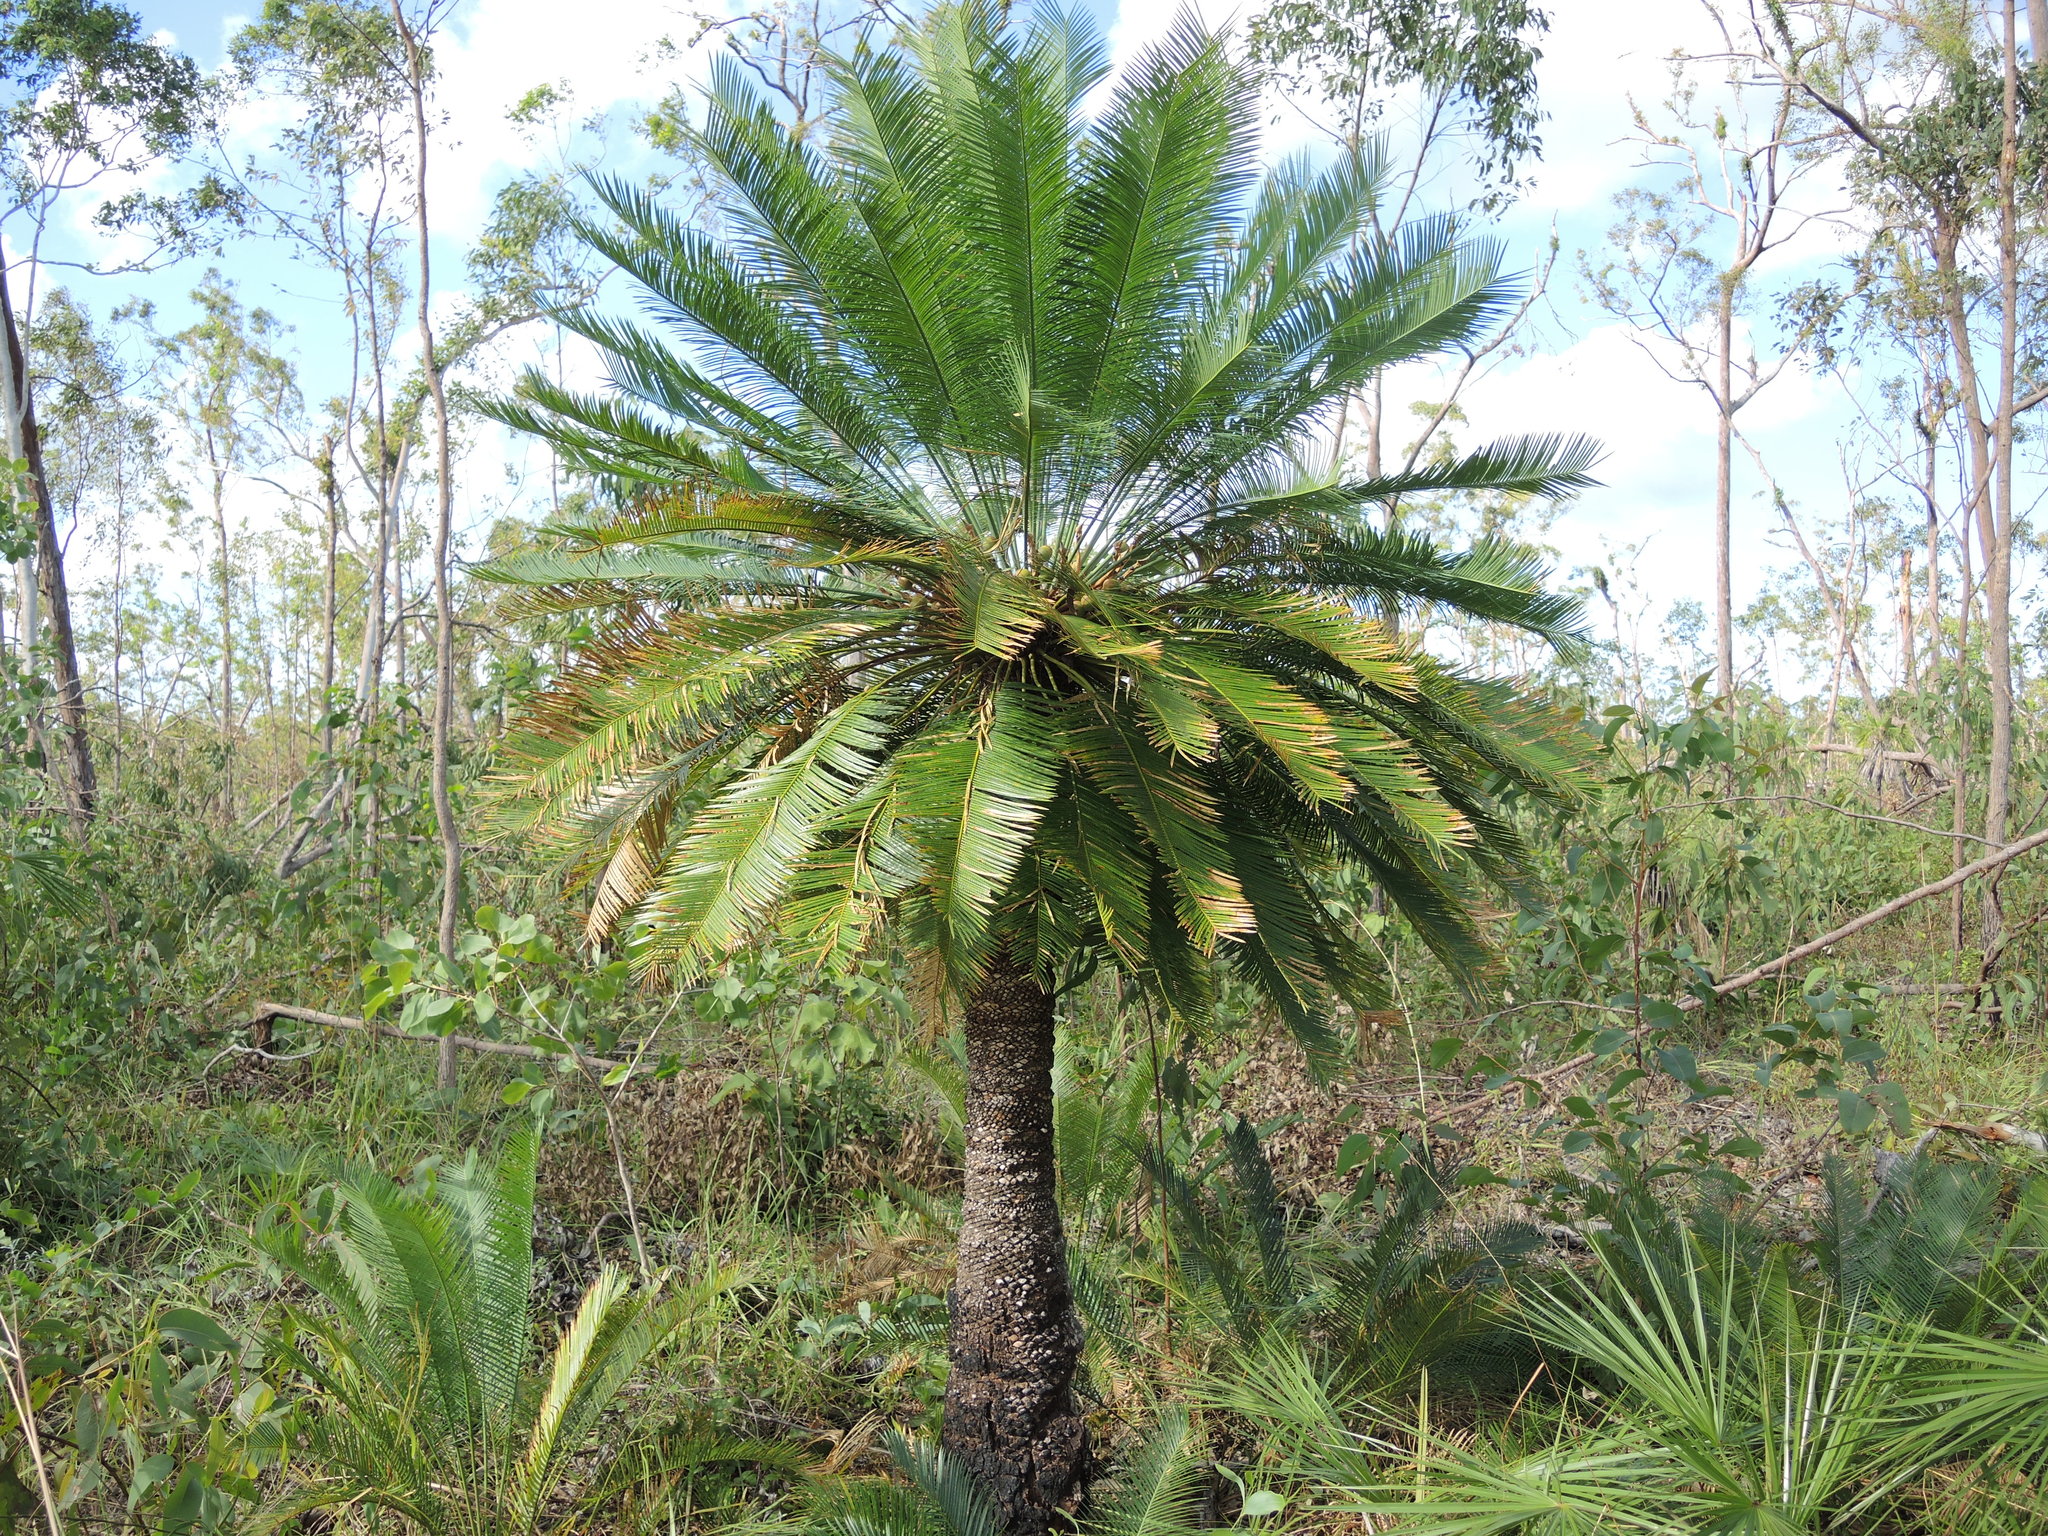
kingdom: Plantae
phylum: Tracheophyta
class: Cycadopsida
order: Cycadales
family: Cycadaceae
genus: Cycas
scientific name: Cycas orientis
